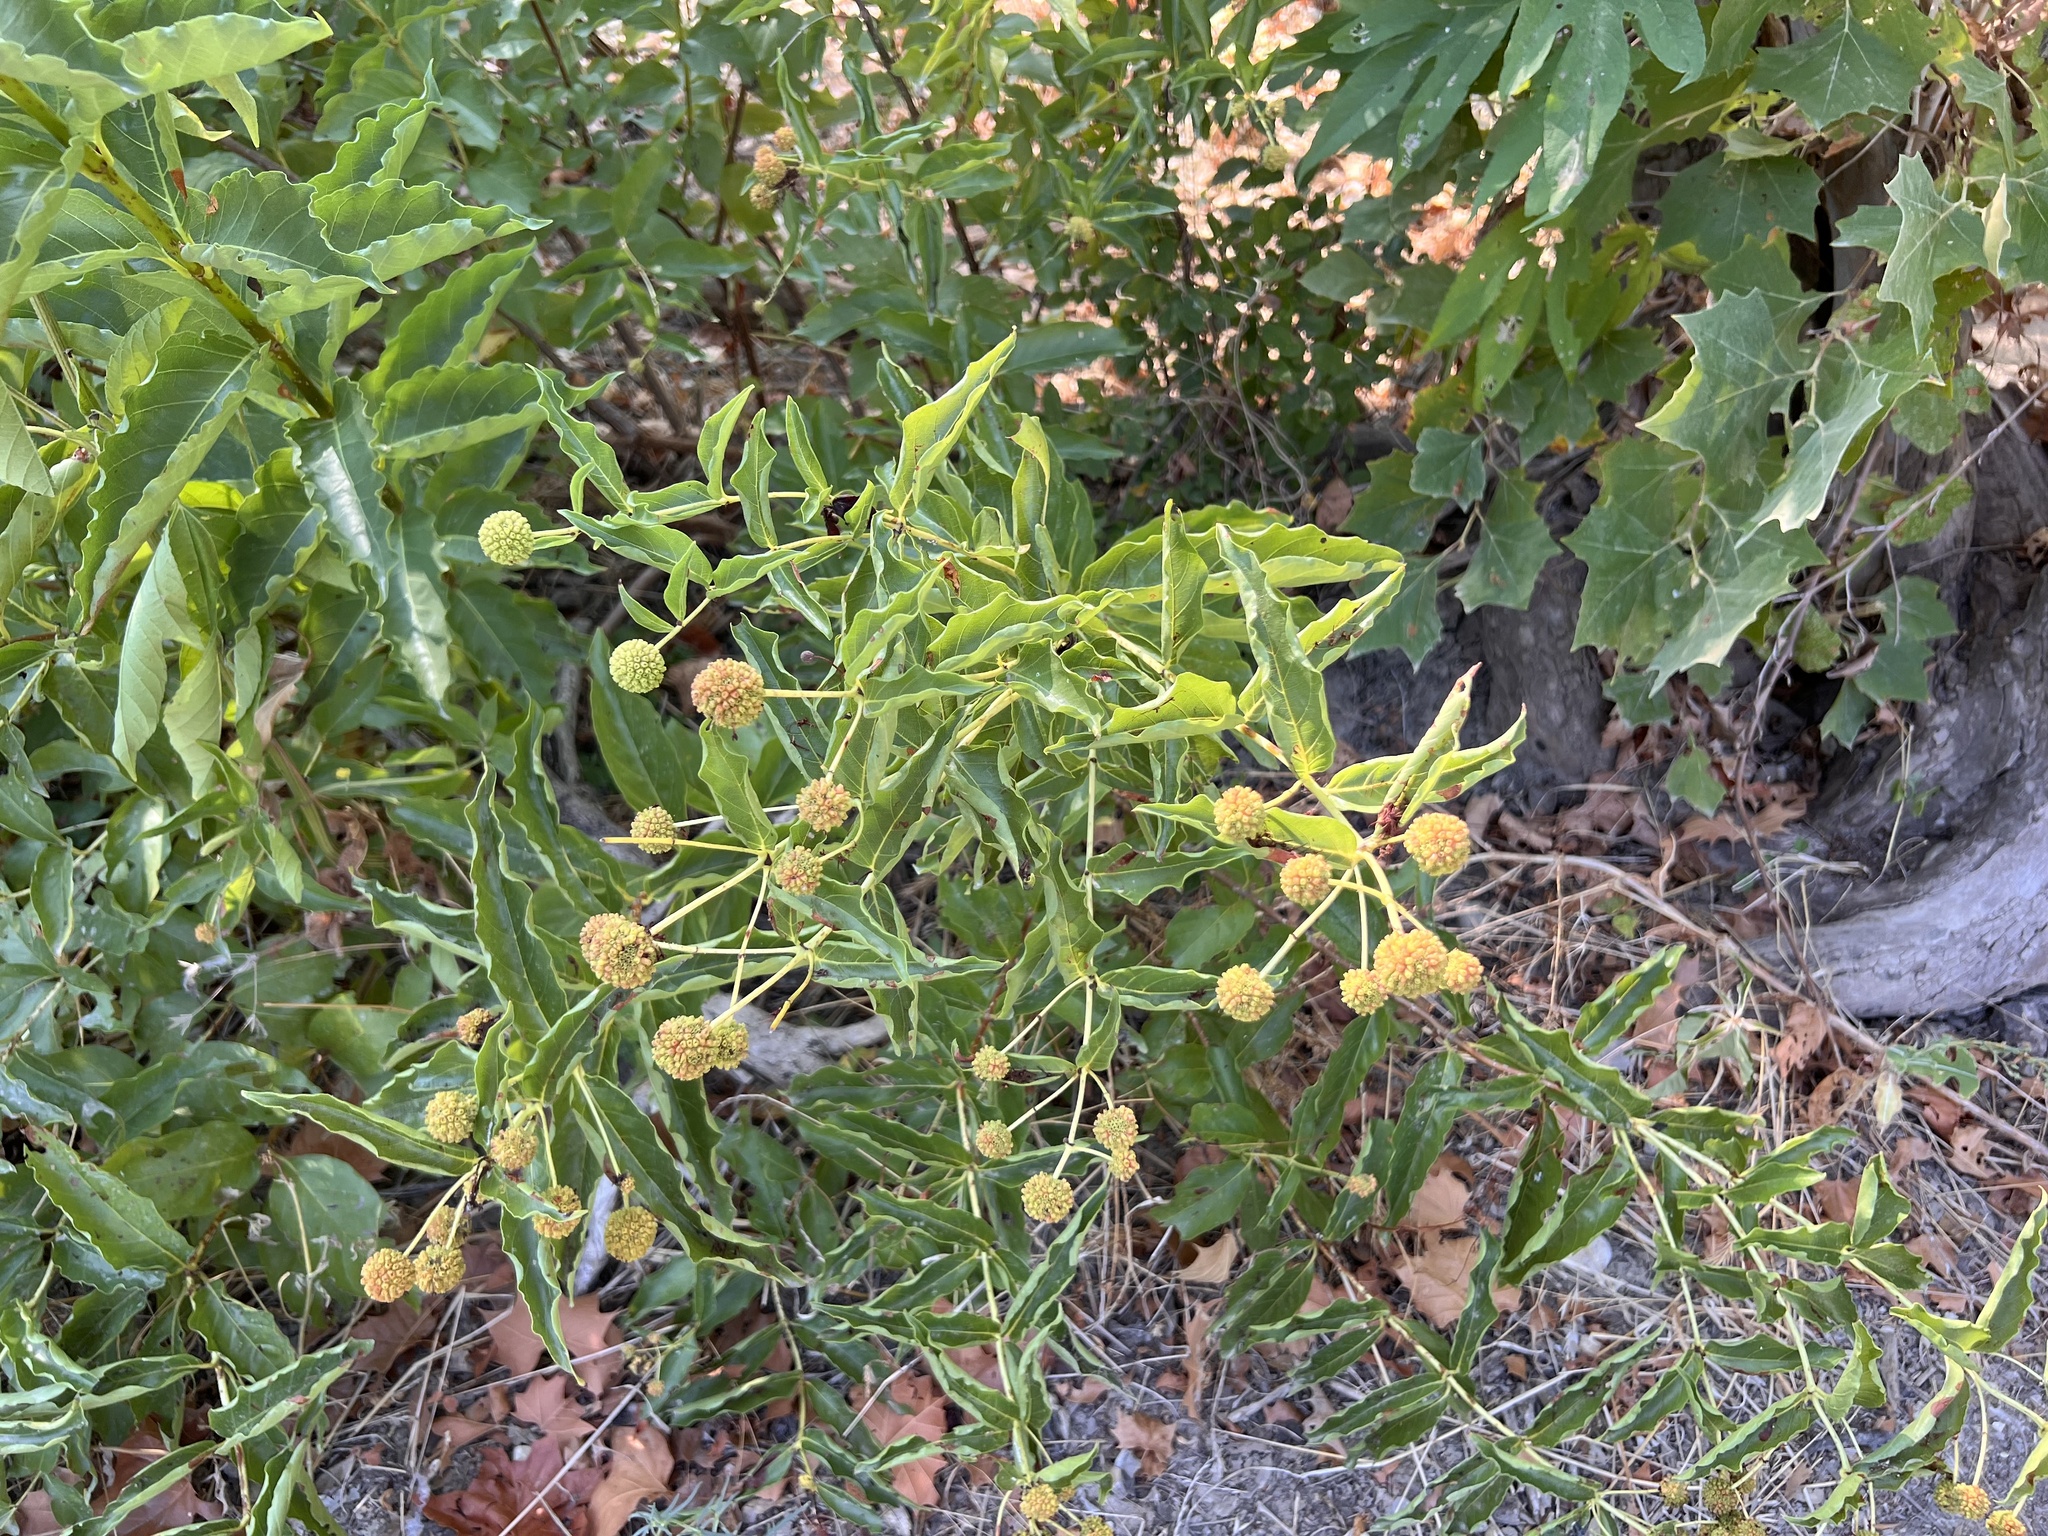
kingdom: Plantae
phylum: Tracheophyta
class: Magnoliopsida
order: Gentianales
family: Rubiaceae
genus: Cephalanthus
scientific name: Cephalanthus occidentalis
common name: Button-willow
